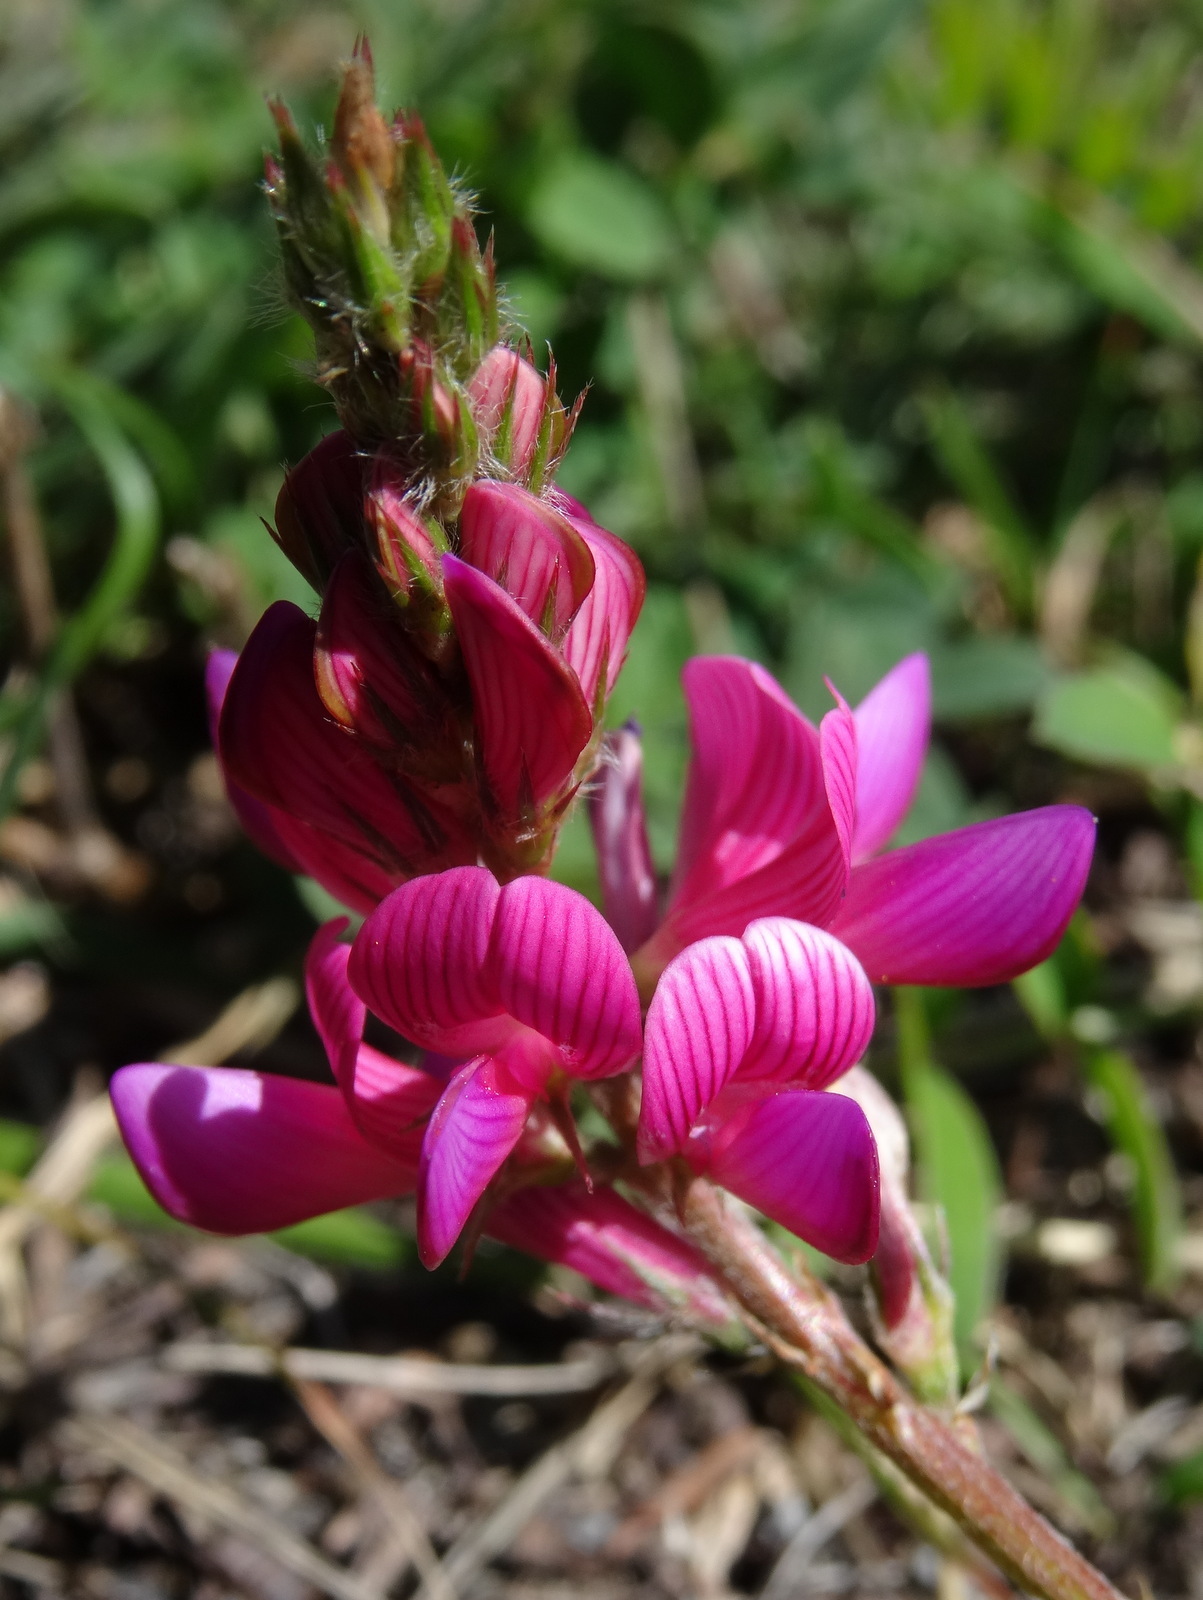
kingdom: Plantae
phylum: Tracheophyta
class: Magnoliopsida
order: Fabales
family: Fabaceae
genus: Onobrychis
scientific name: Onobrychis viciifolia
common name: Sainfoin
